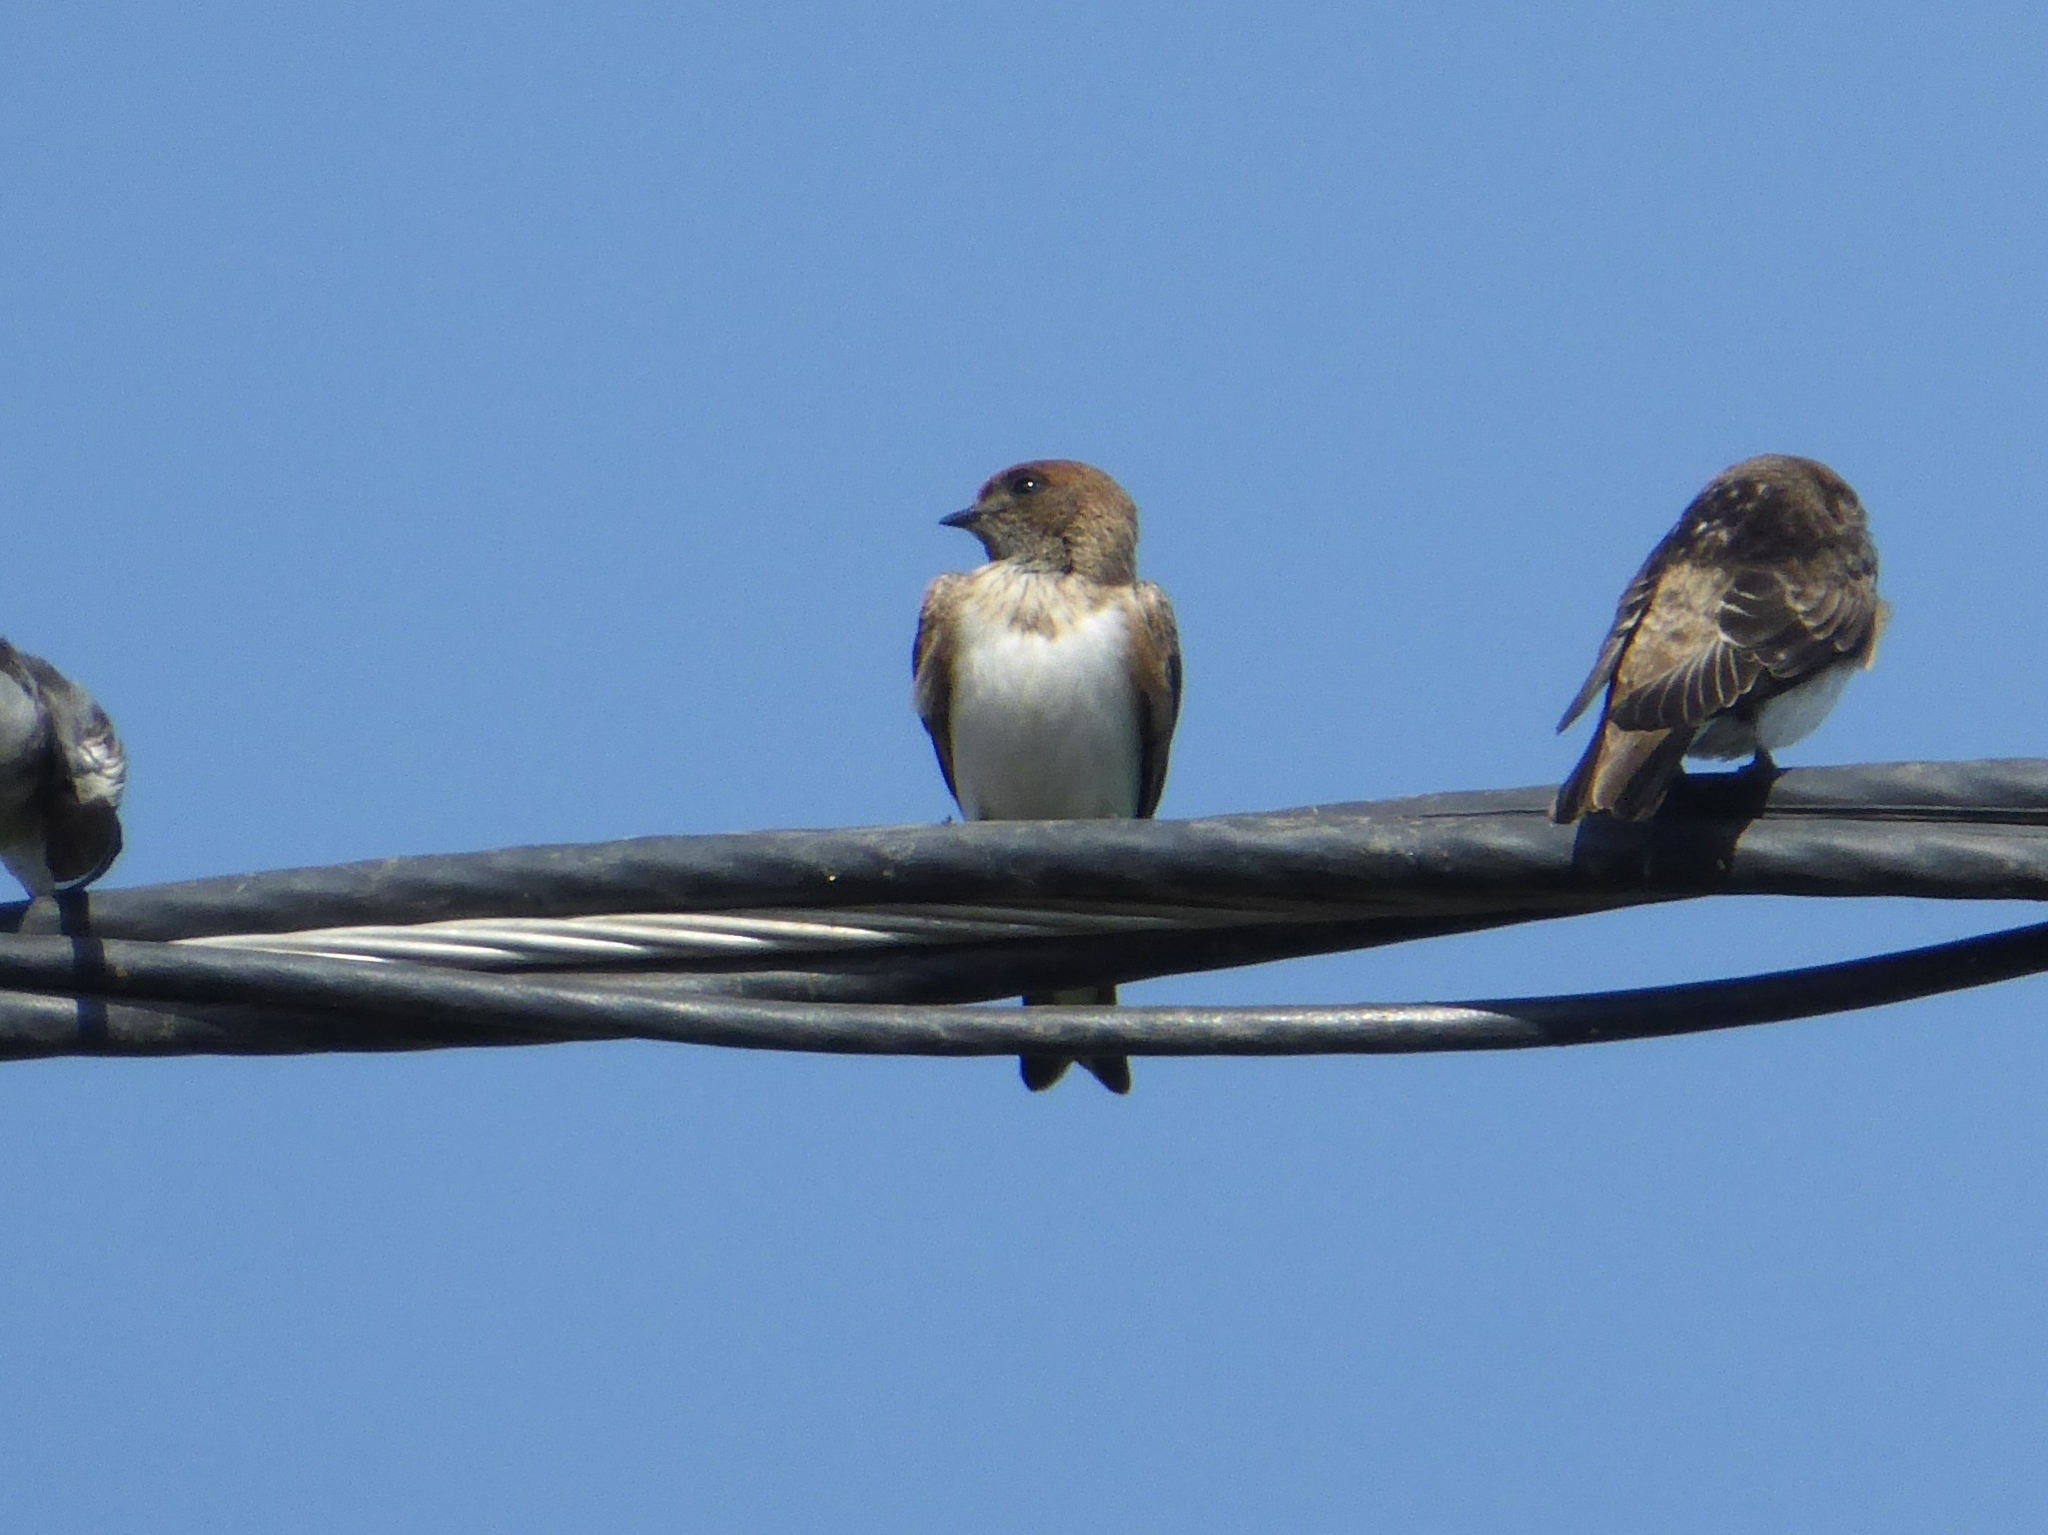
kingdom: Animalia
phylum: Chordata
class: Aves
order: Passeriformes
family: Hirundinidae
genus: Petrochelidon
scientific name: Petrochelidon fluvicola
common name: Streak-throated swallow
